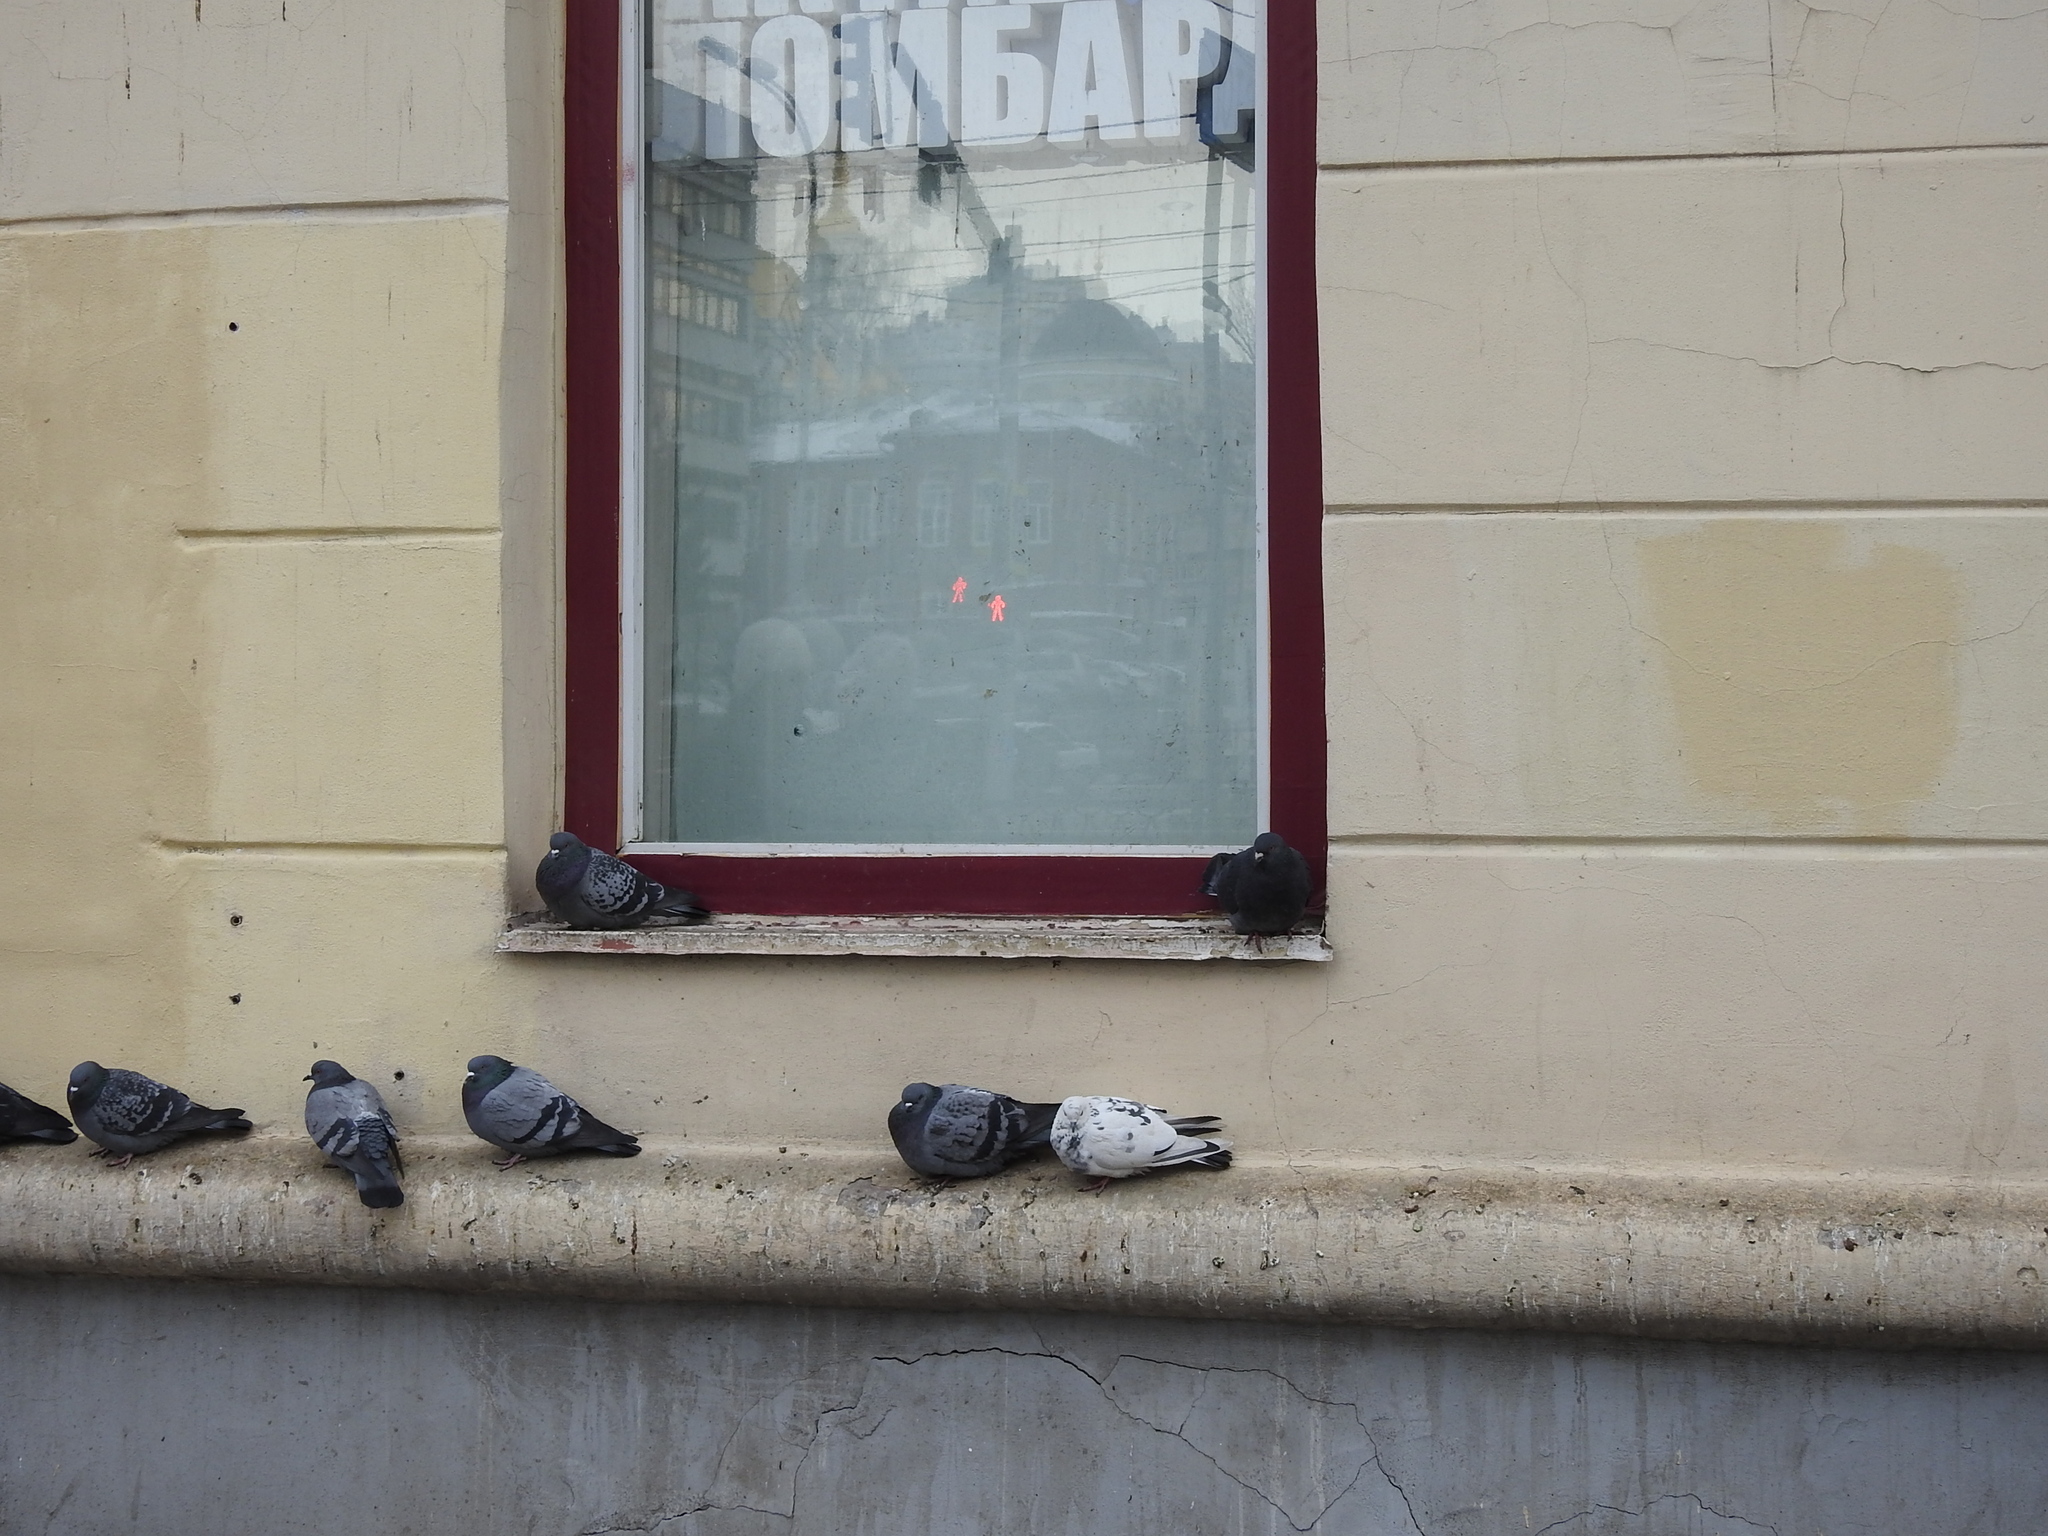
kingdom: Animalia
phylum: Chordata
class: Aves
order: Columbiformes
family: Columbidae
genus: Columba
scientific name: Columba livia
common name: Rock pigeon
